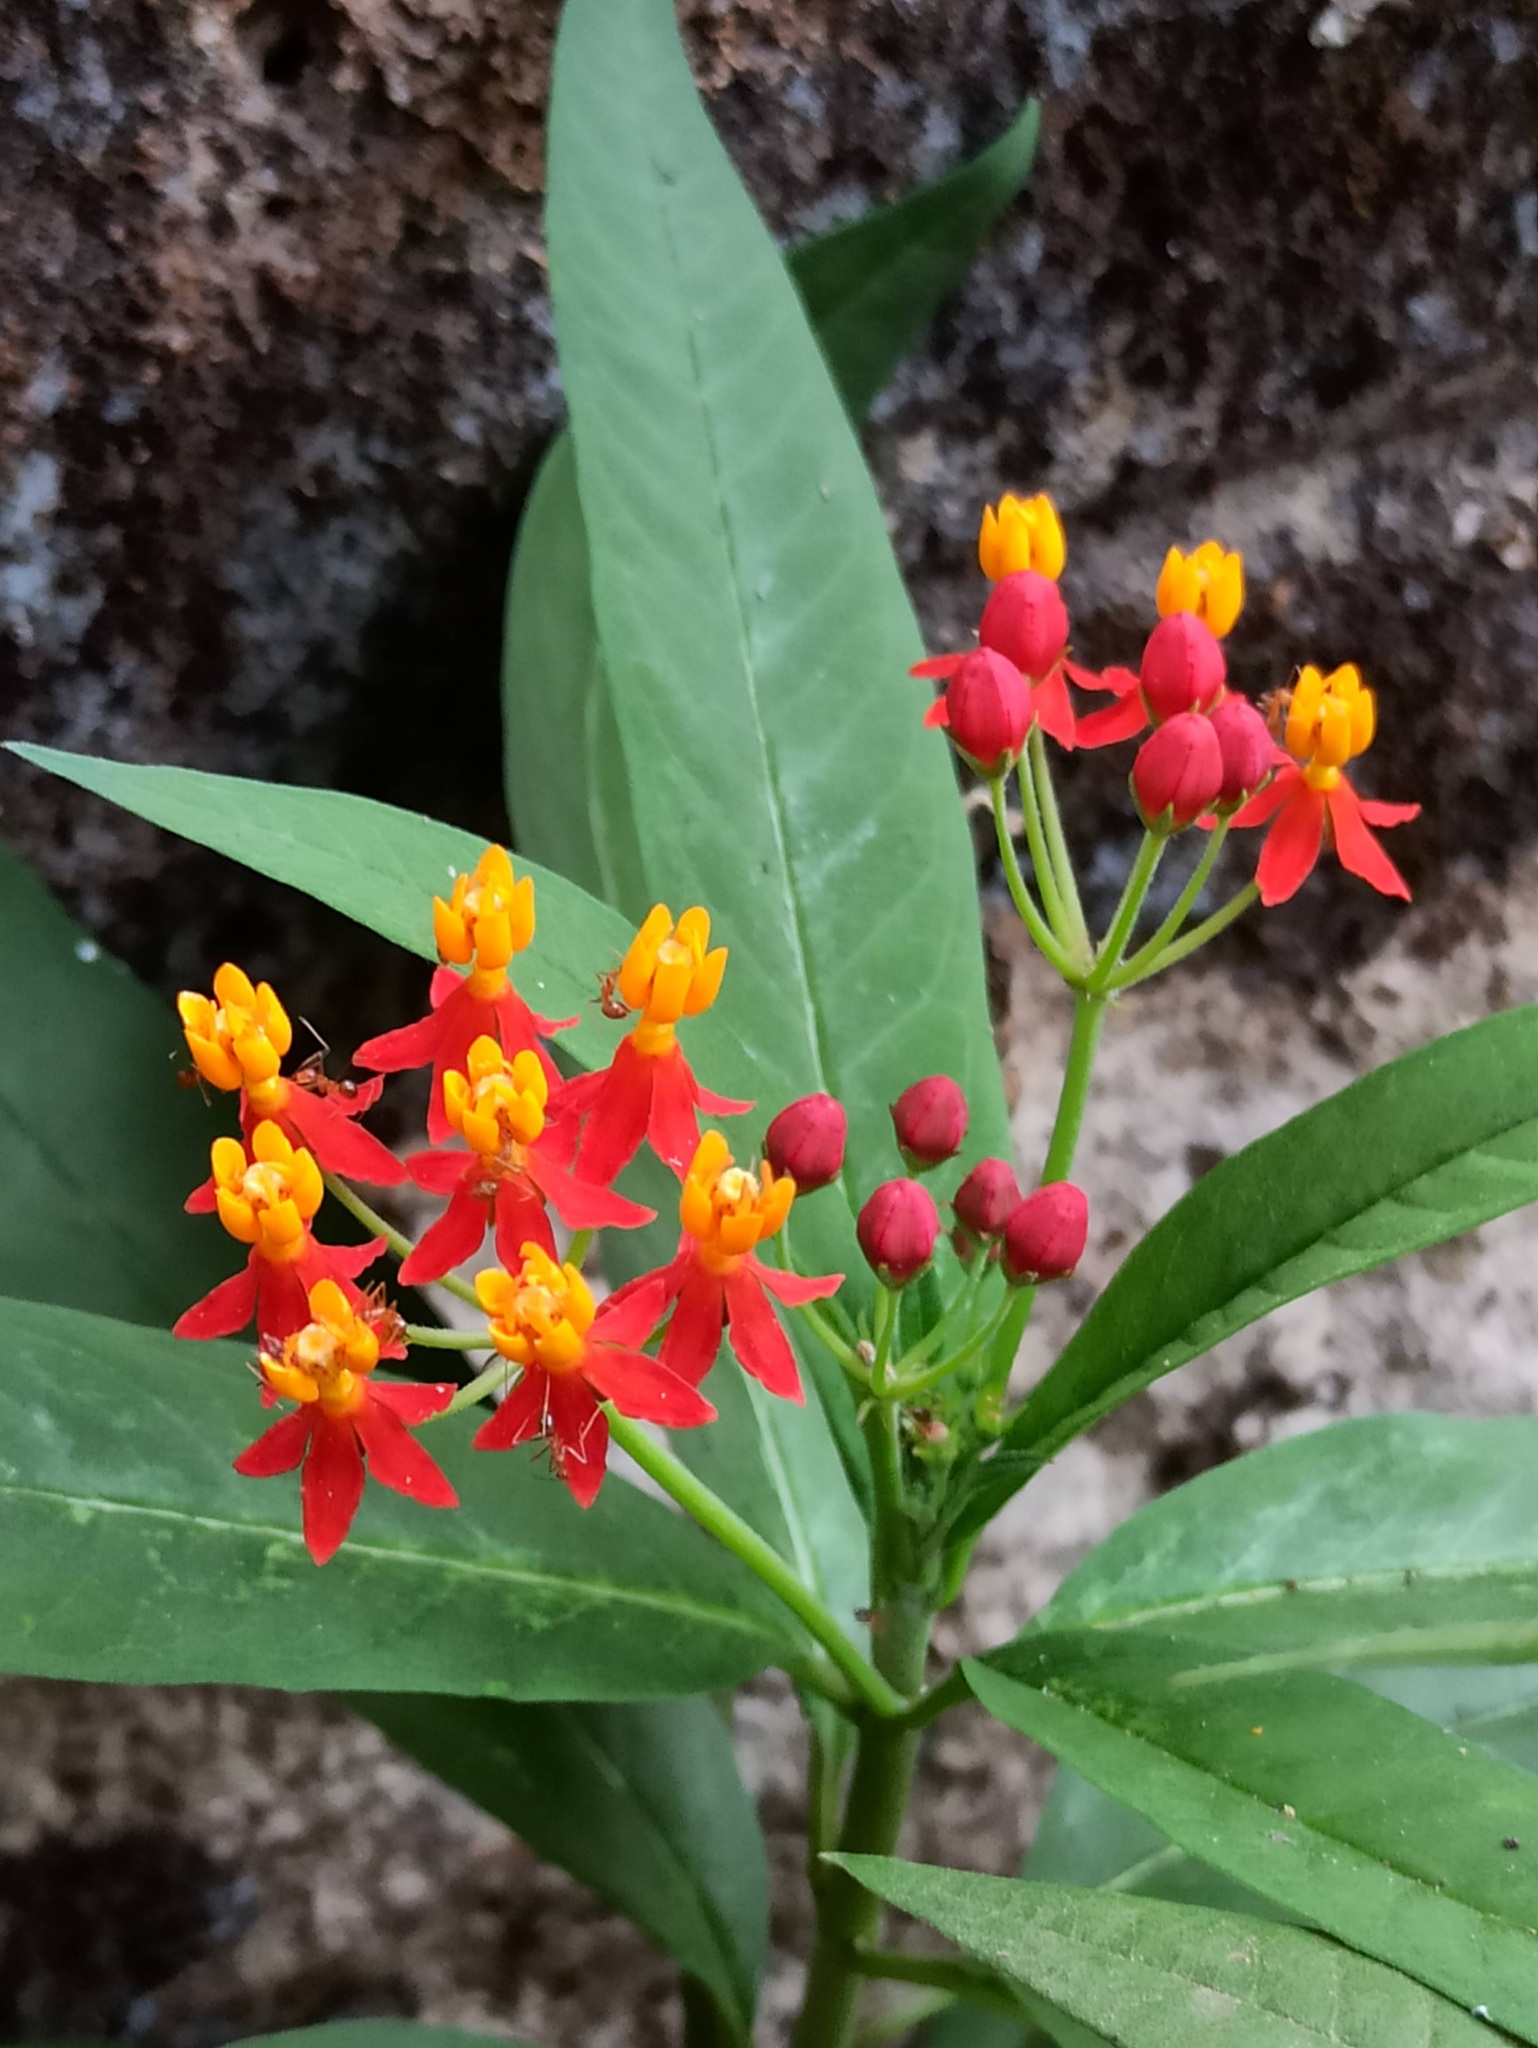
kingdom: Plantae
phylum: Tracheophyta
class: Magnoliopsida
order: Gentianales
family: Apocynaceae
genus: Asclepias
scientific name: Asclepias curassavica
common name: Bloodflower
